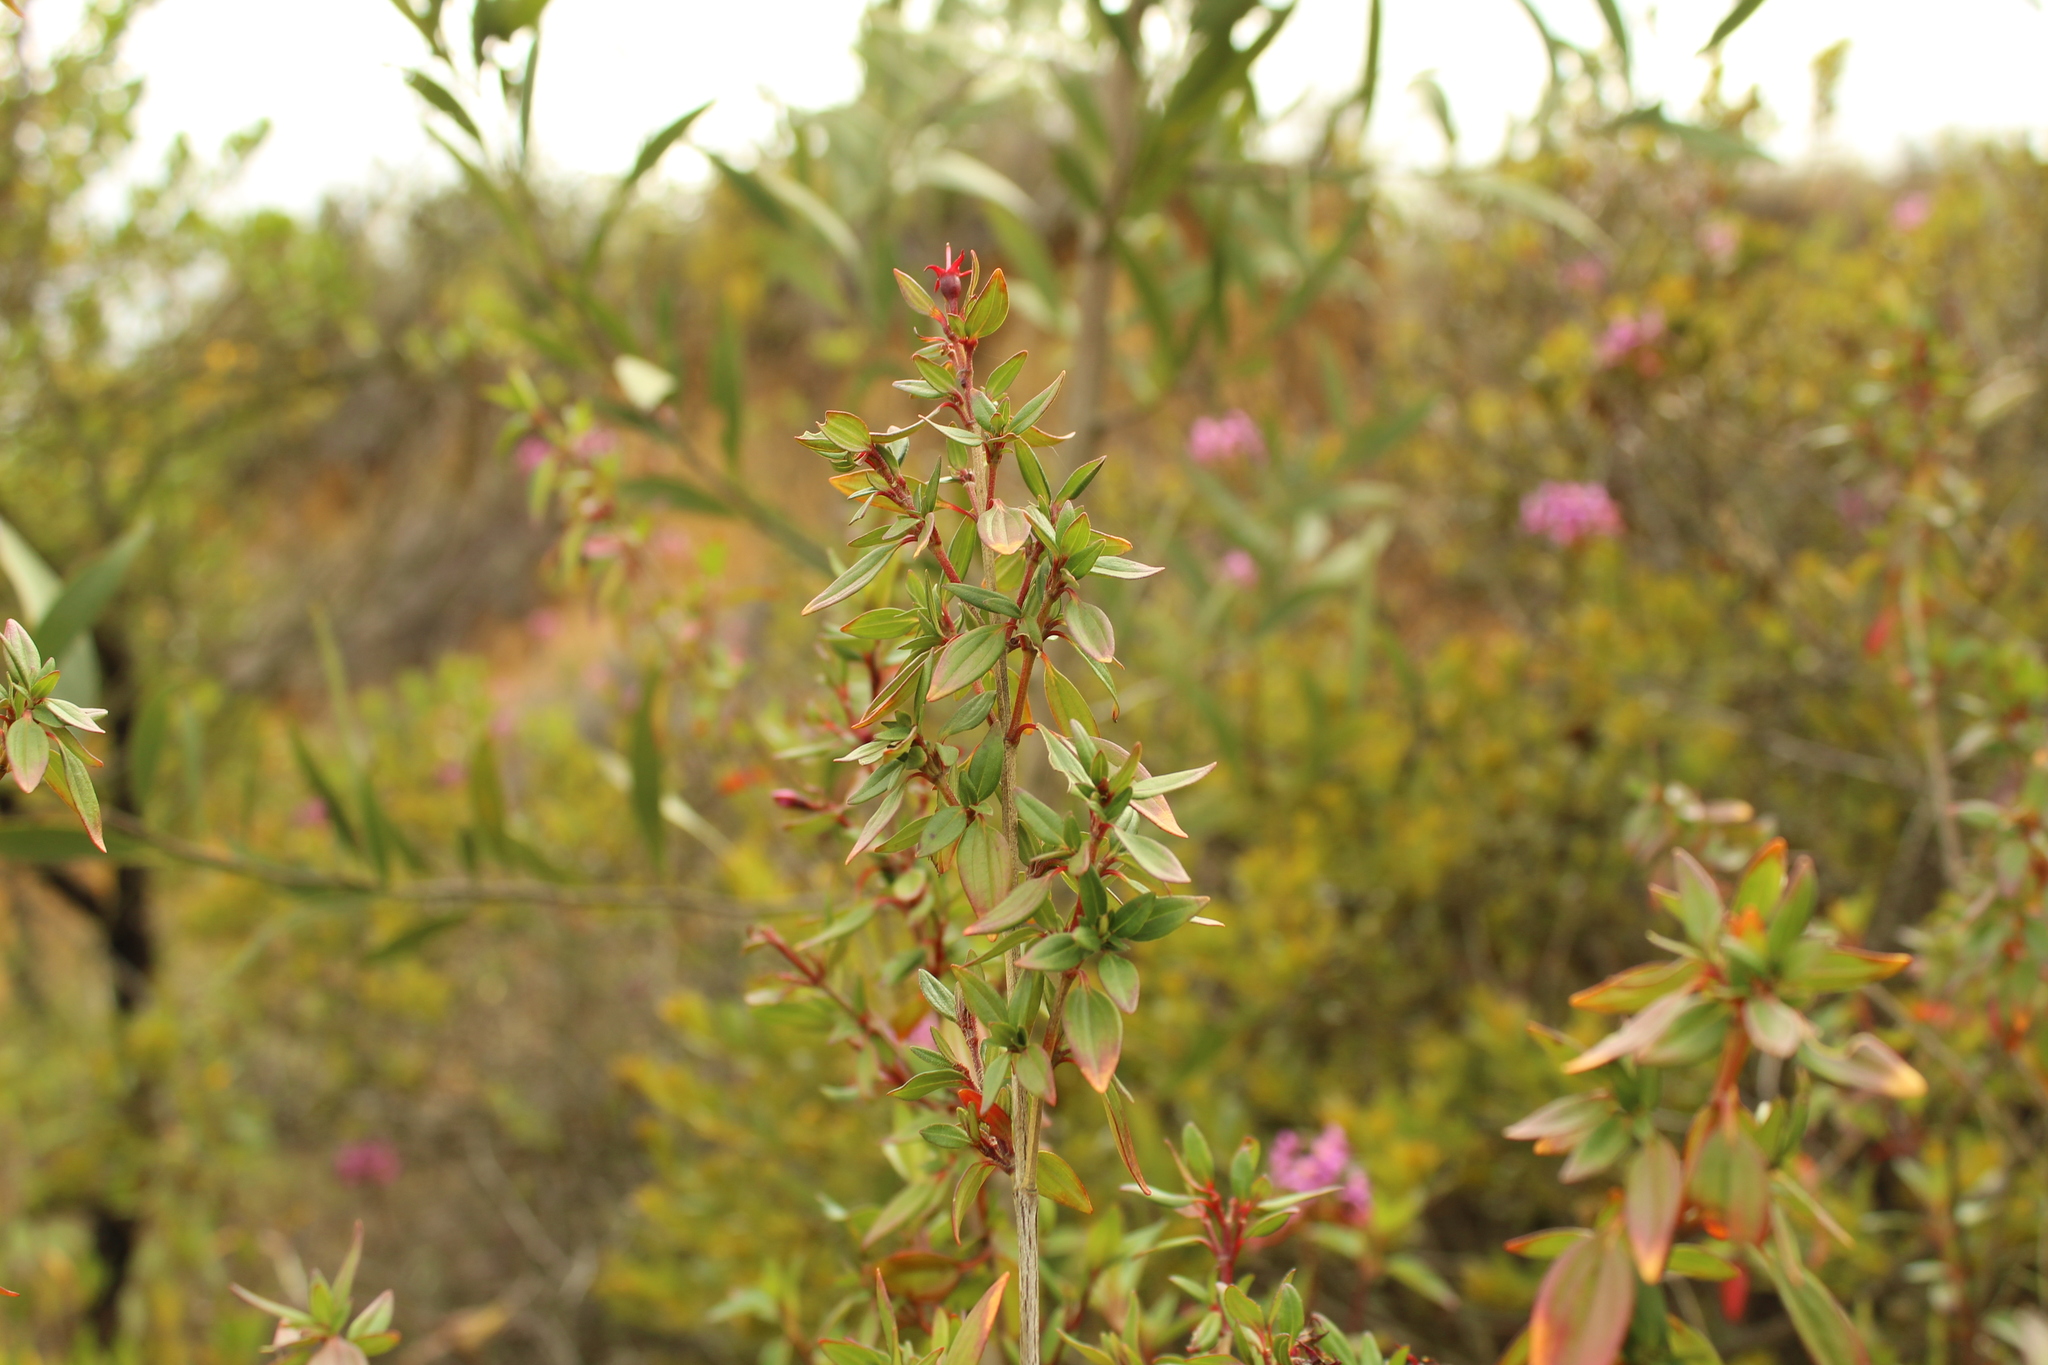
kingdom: Plantae
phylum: Tracheophyta
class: Magnoliopsida
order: Myrtales
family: Melastomataceae
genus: Monochaetum
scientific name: Monochaetum myrtoideum
